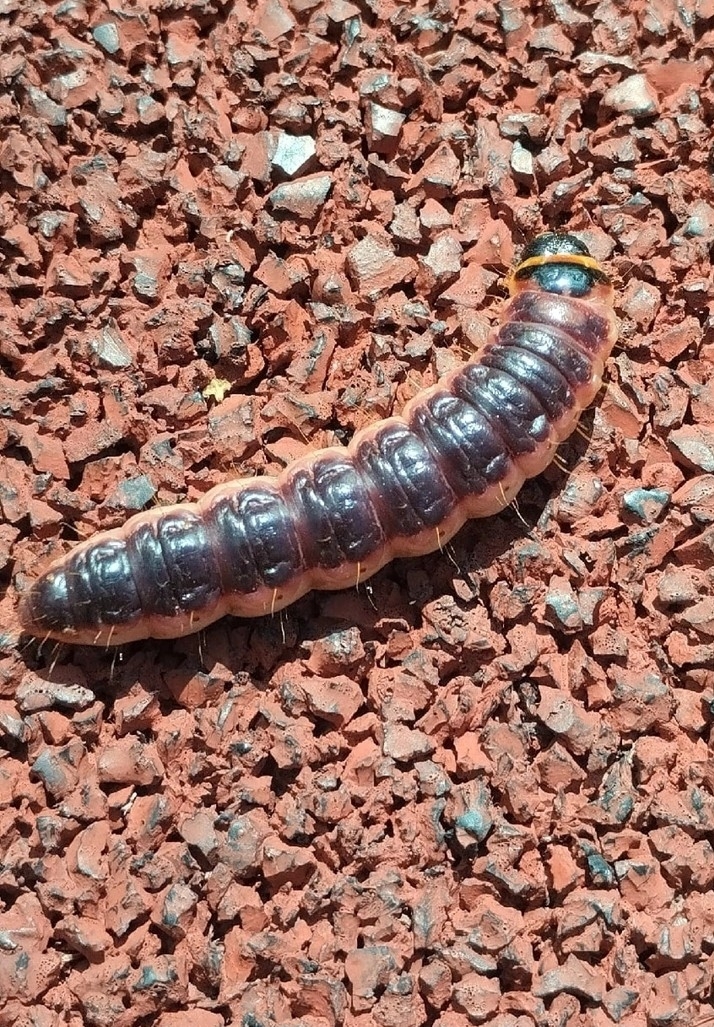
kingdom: Animalia
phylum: Arthropoda
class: Insecta
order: Lepidoptera
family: Cossidae
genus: Cossus
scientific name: Cossus cossus
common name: Goat moth
